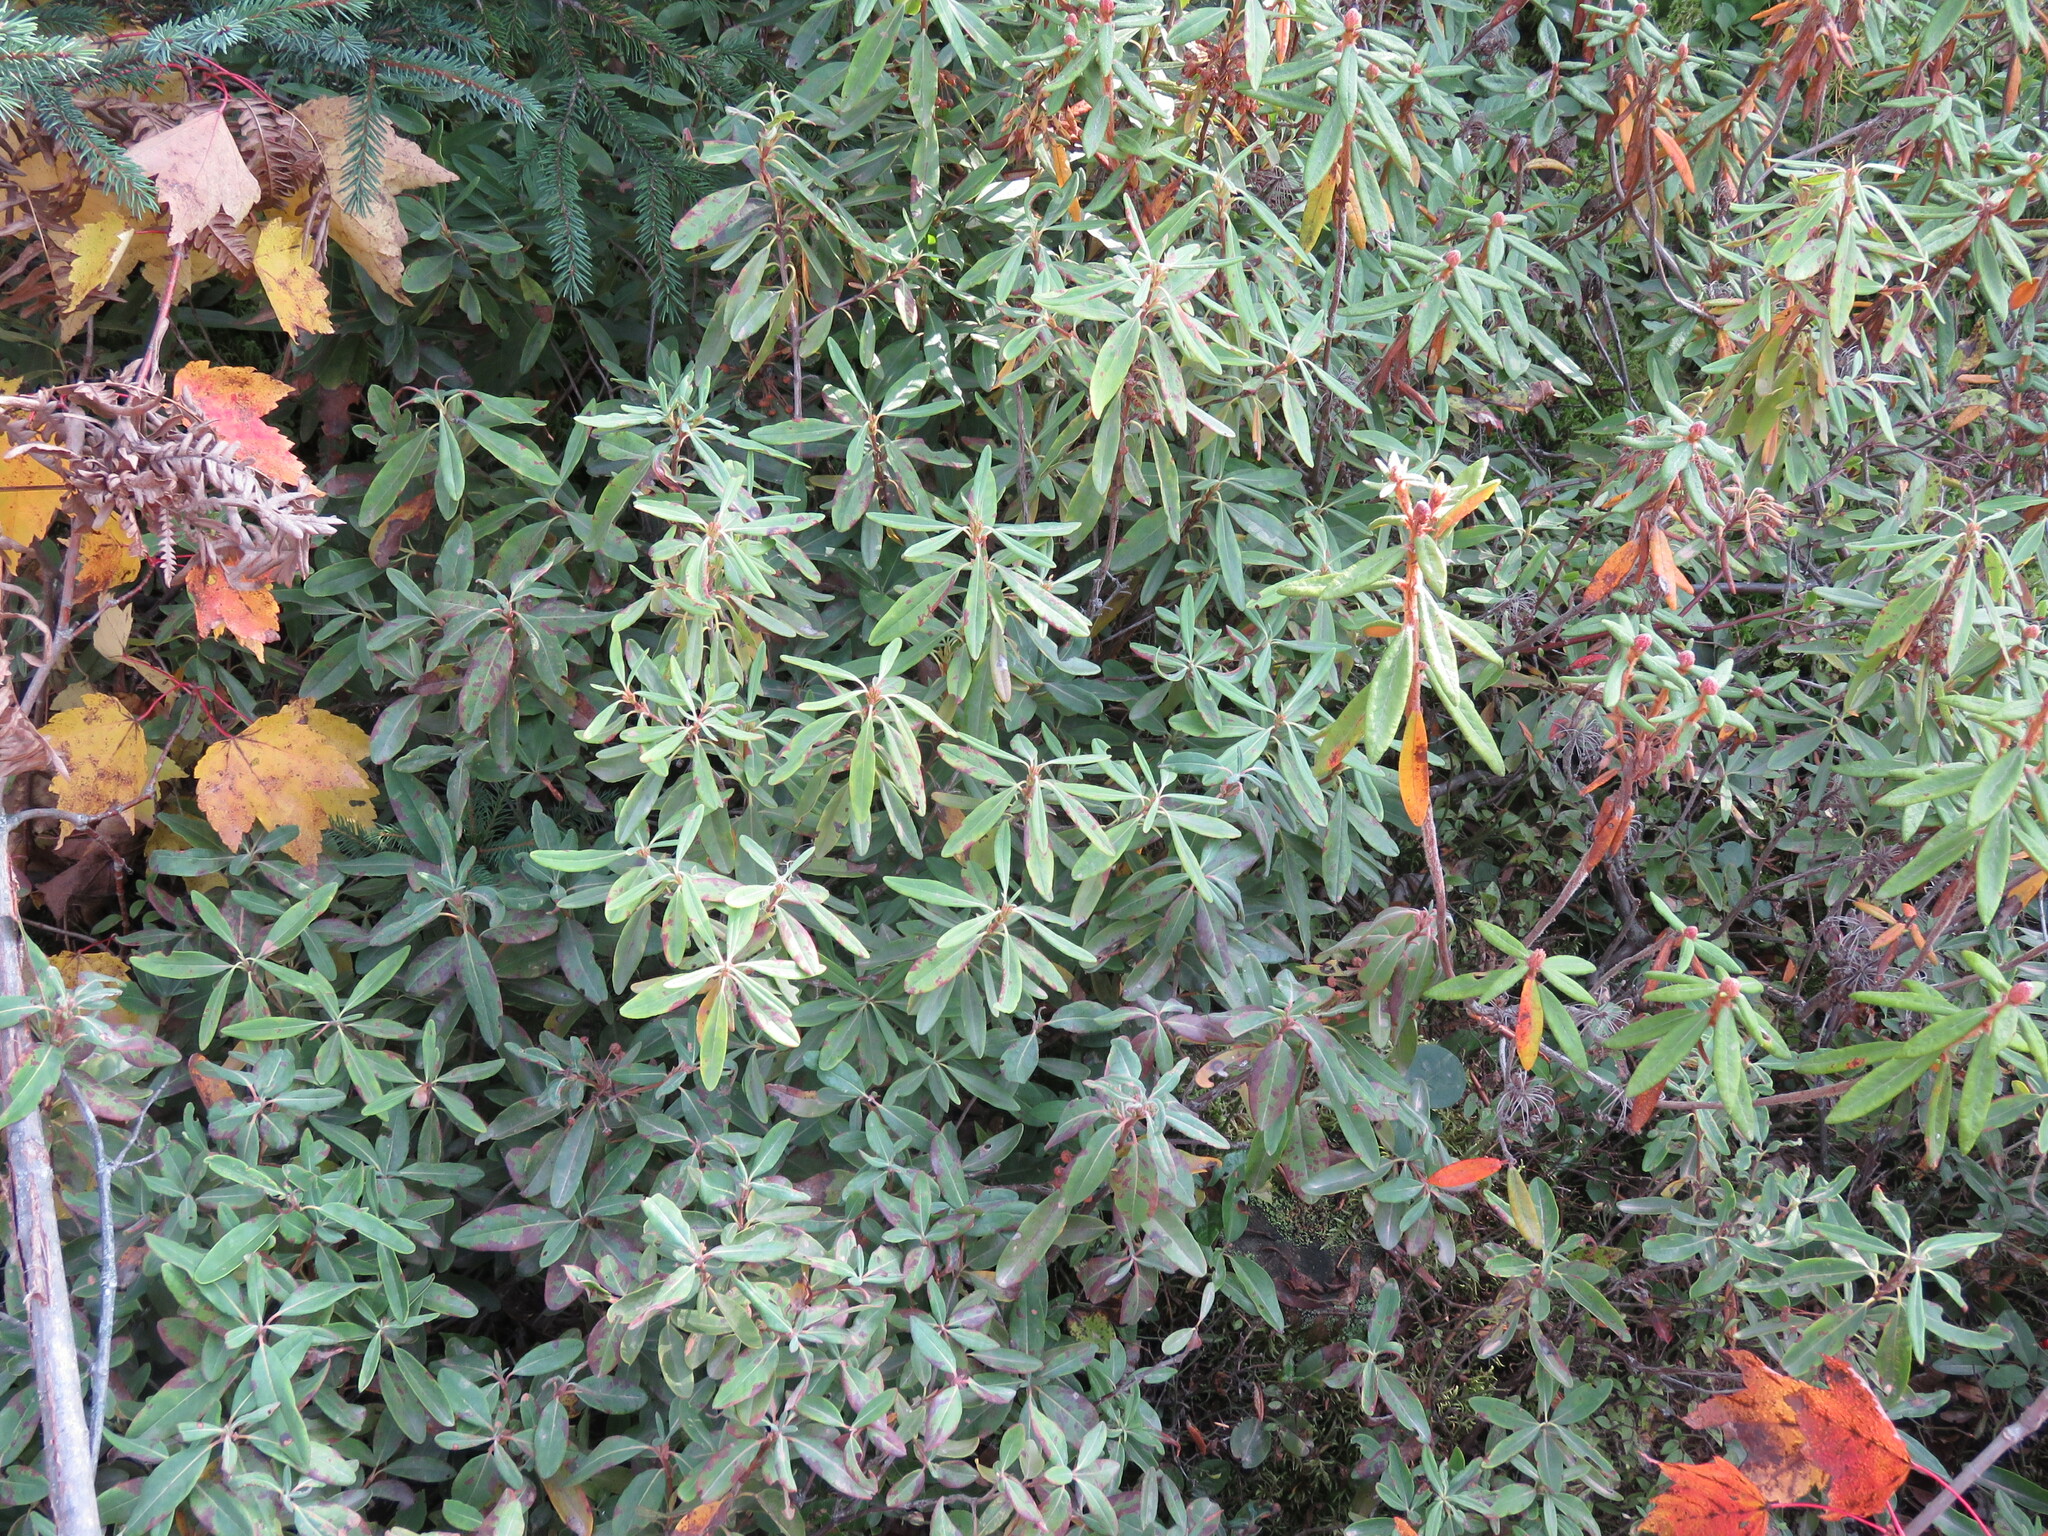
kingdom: Plantae
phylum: Tracheophyta
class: Magnoliopsida
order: Ericales
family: Ericaceae
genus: Kalmia
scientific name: Kalmia angustifolia
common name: Sheep-laurel
